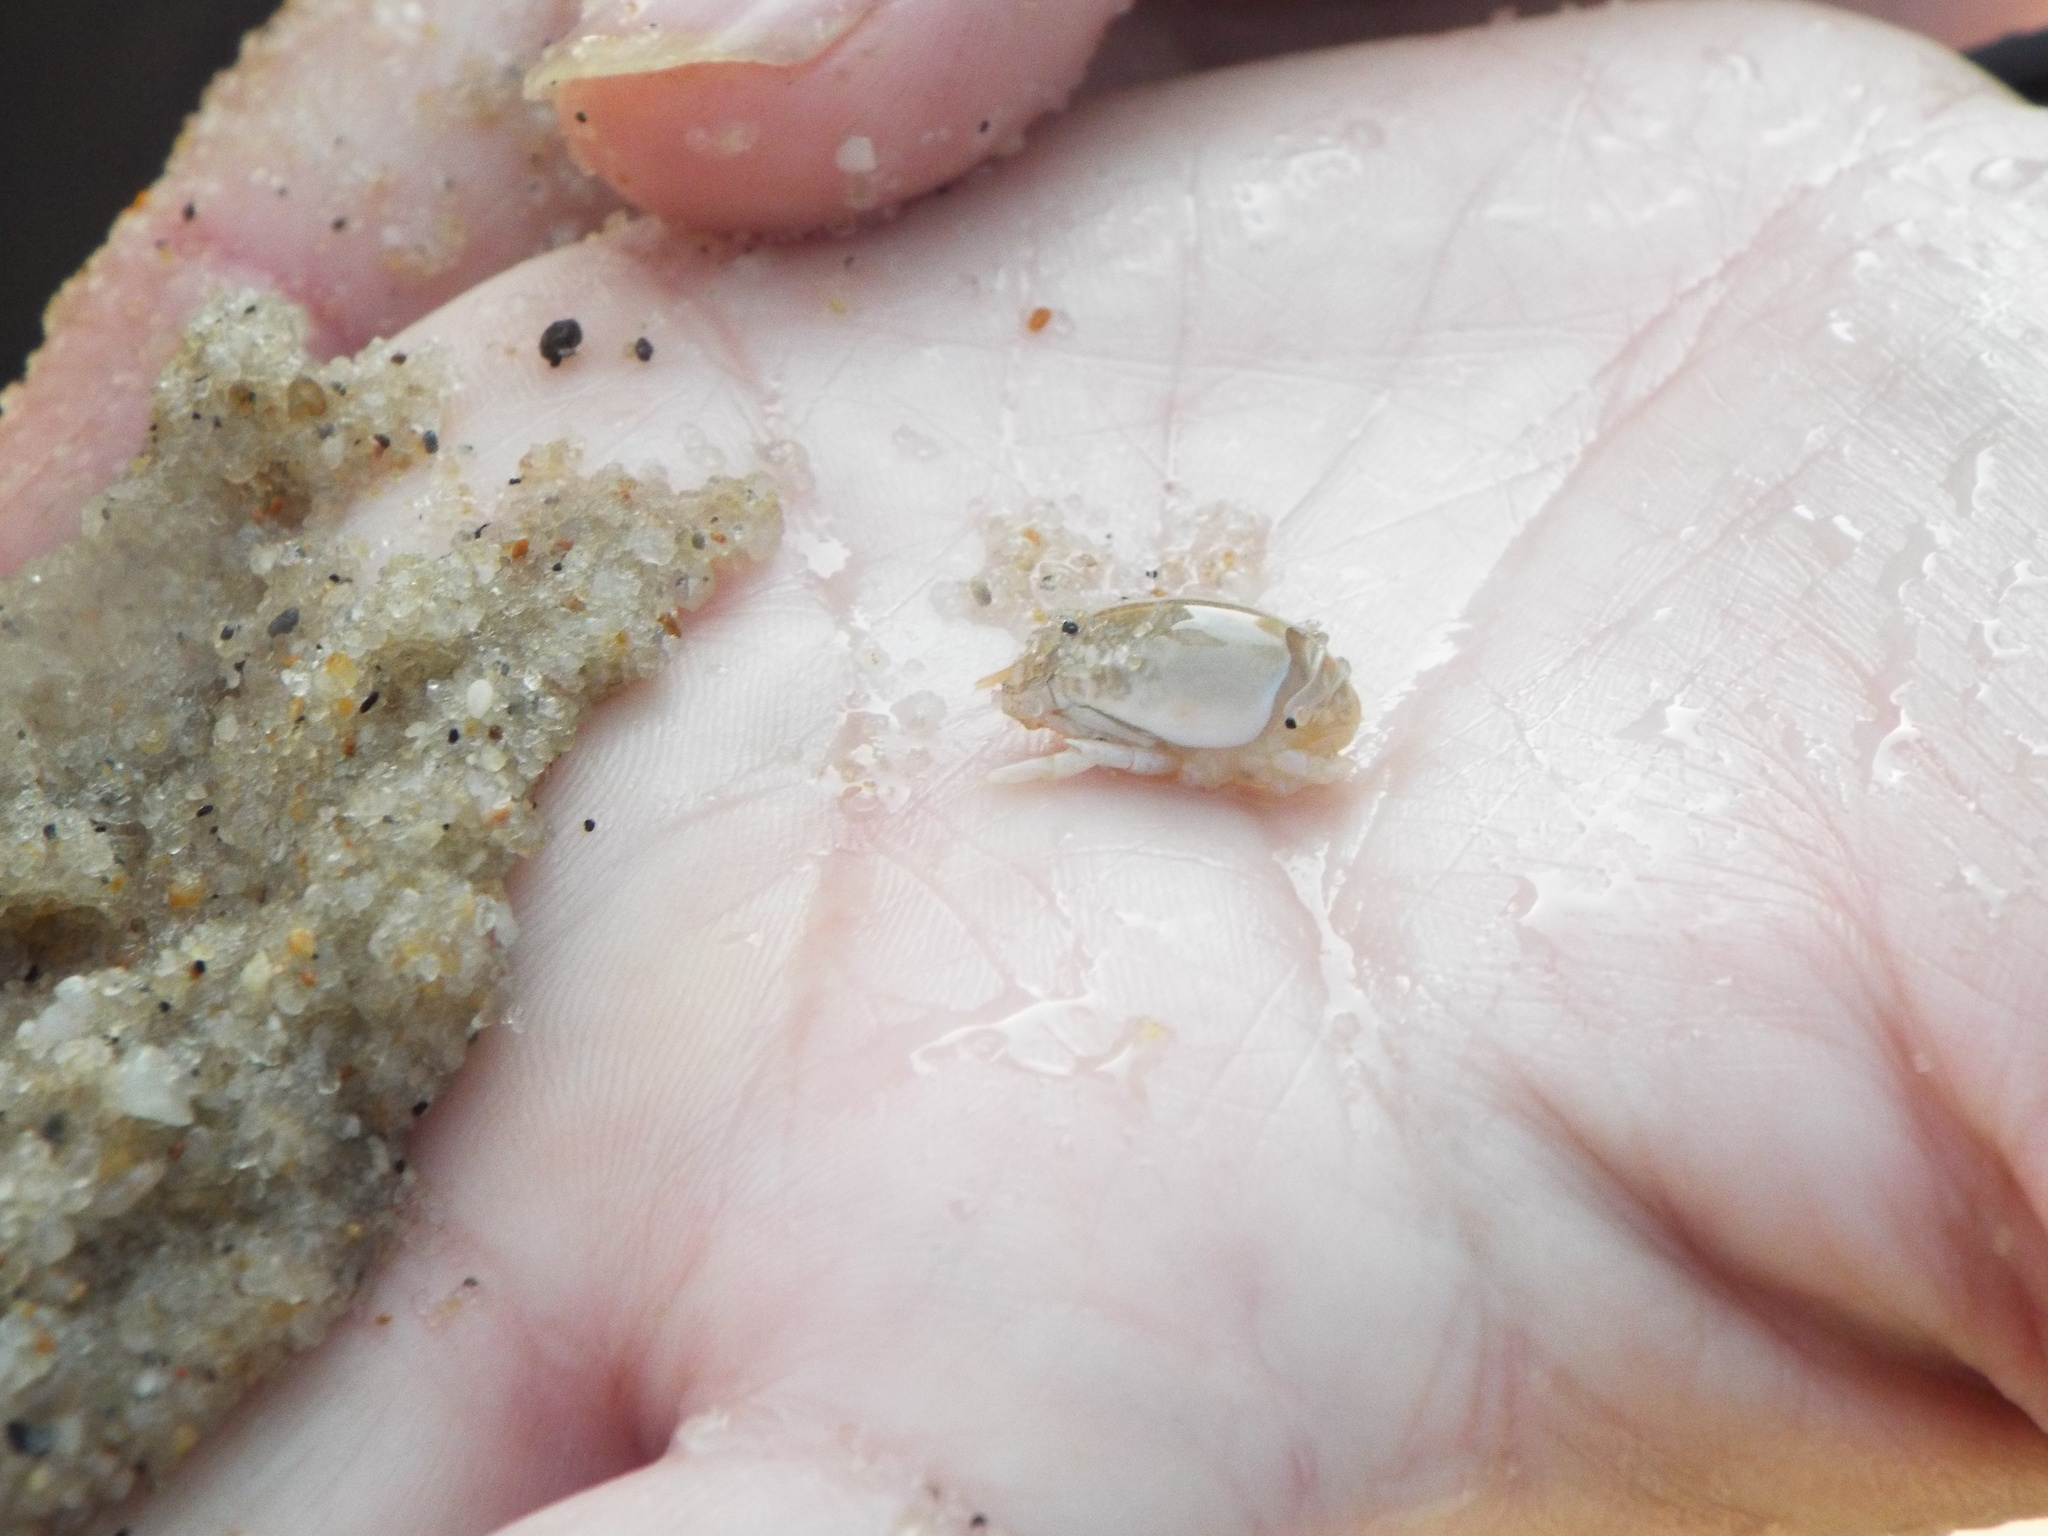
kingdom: Animalia
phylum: Arthropoda
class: Malacostraca
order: Decapoda
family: Hippidae
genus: Emerita
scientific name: Emerita talpoida
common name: Atlantic sand crab
